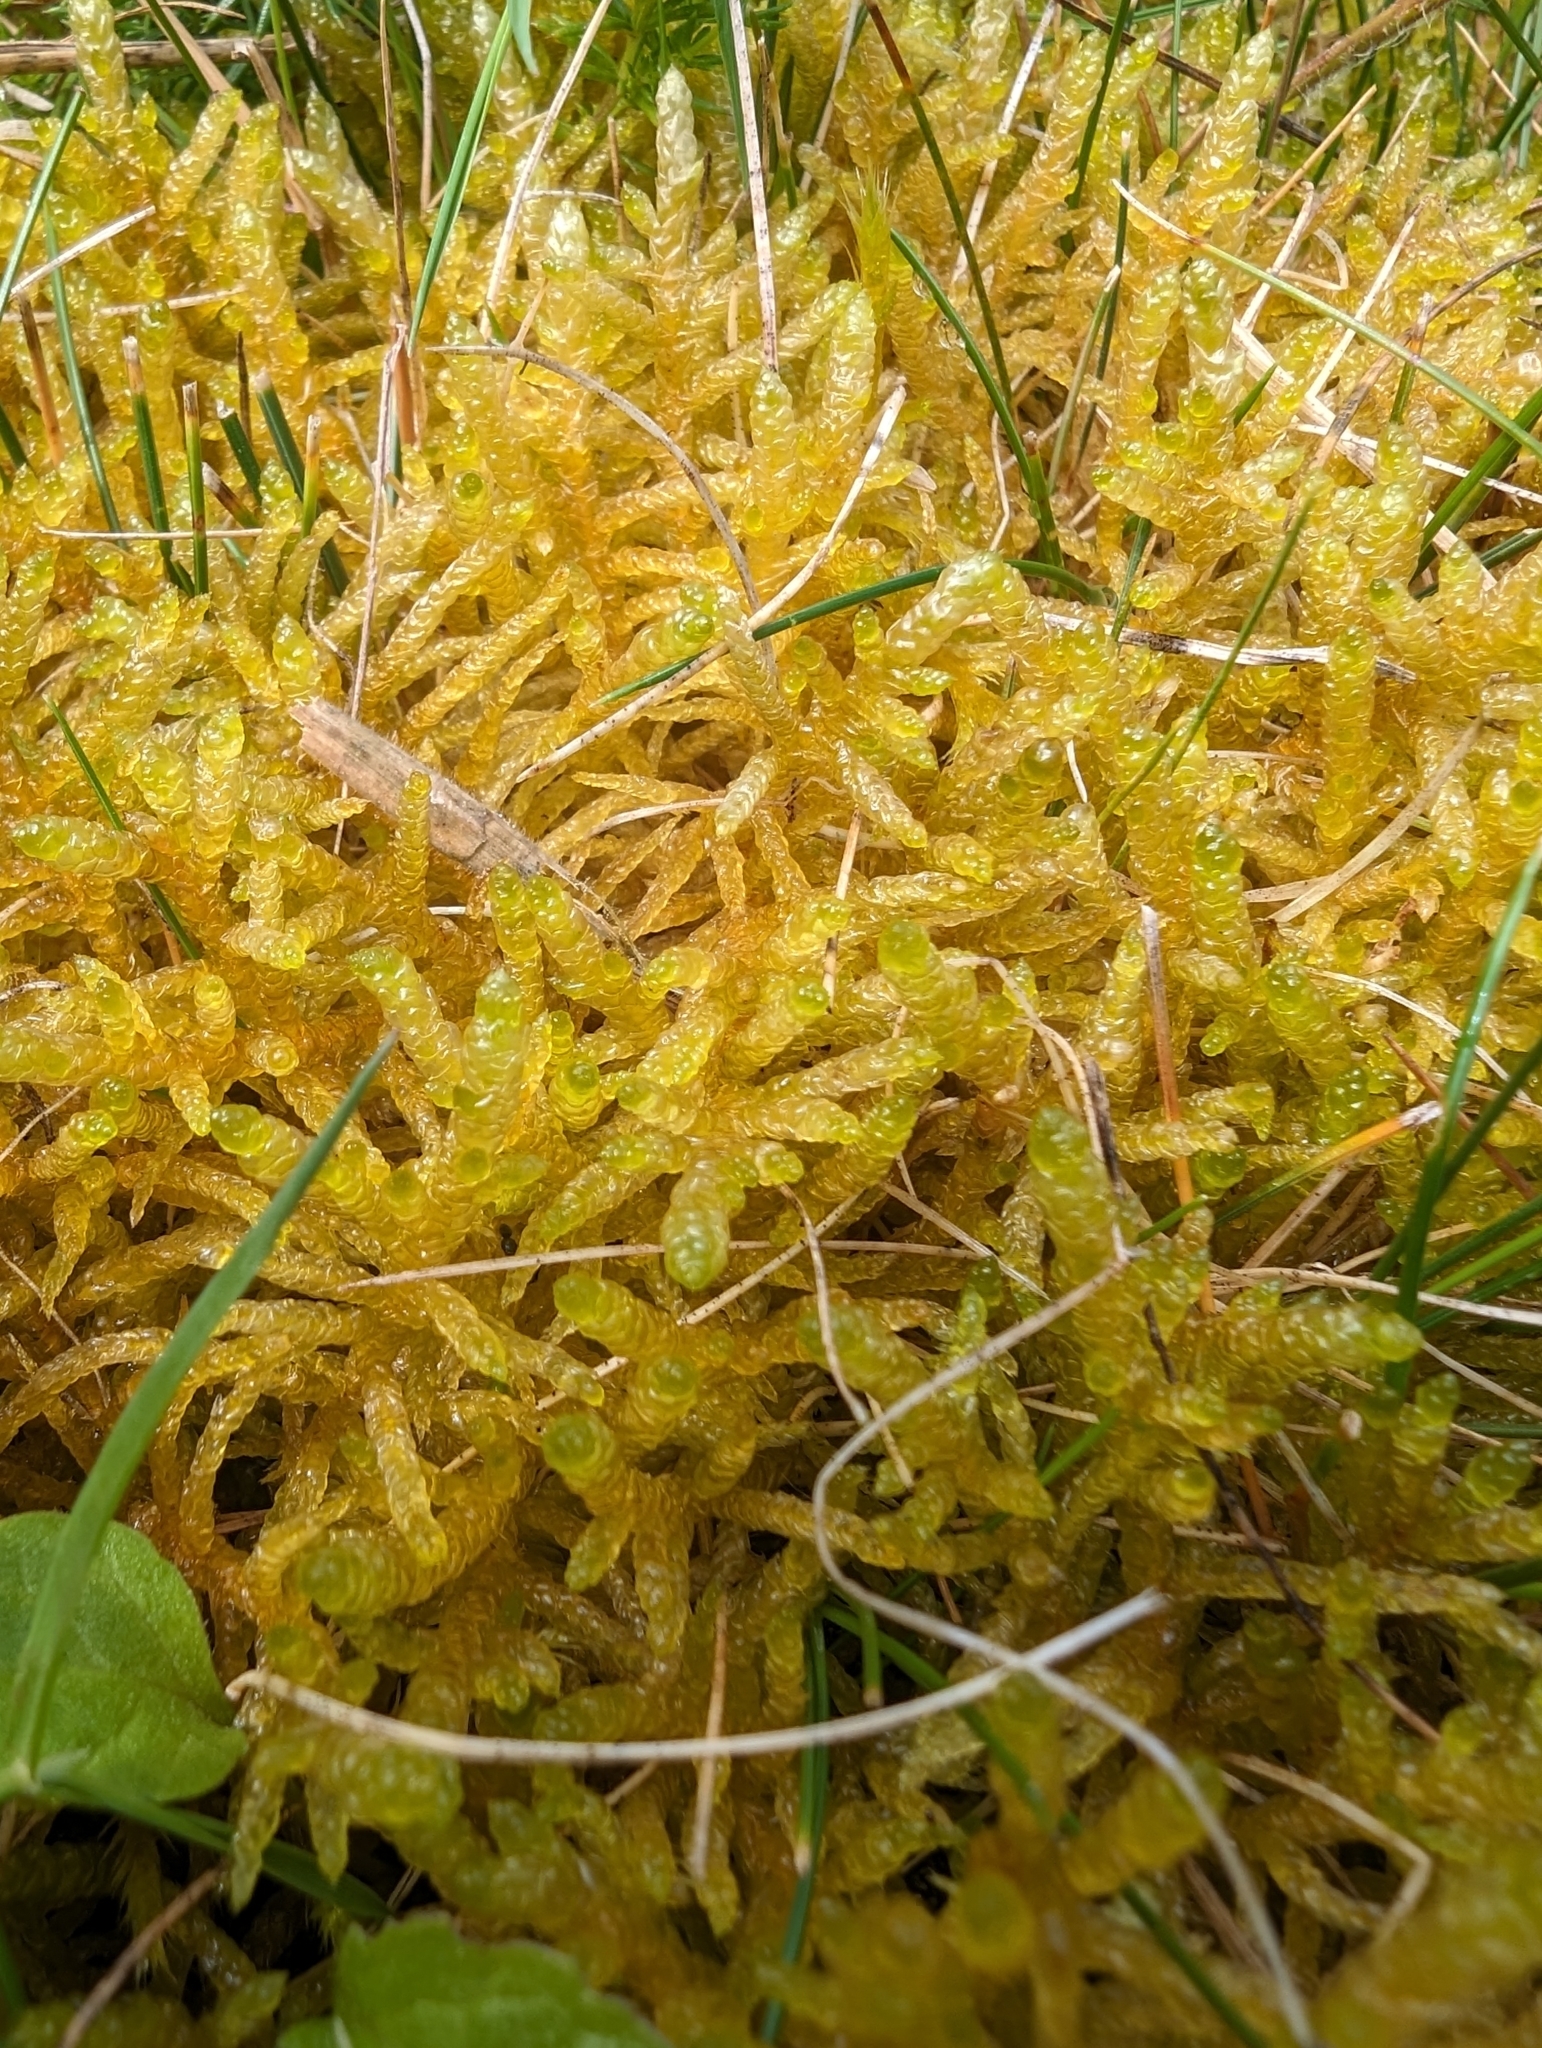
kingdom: Plantae
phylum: Bryophyta
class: Bryopsida
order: Hypnales
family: Brachytheciaceae
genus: Pseudoscleropodium
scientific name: Pseudoscleropodium purum
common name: Neat feather-moss
